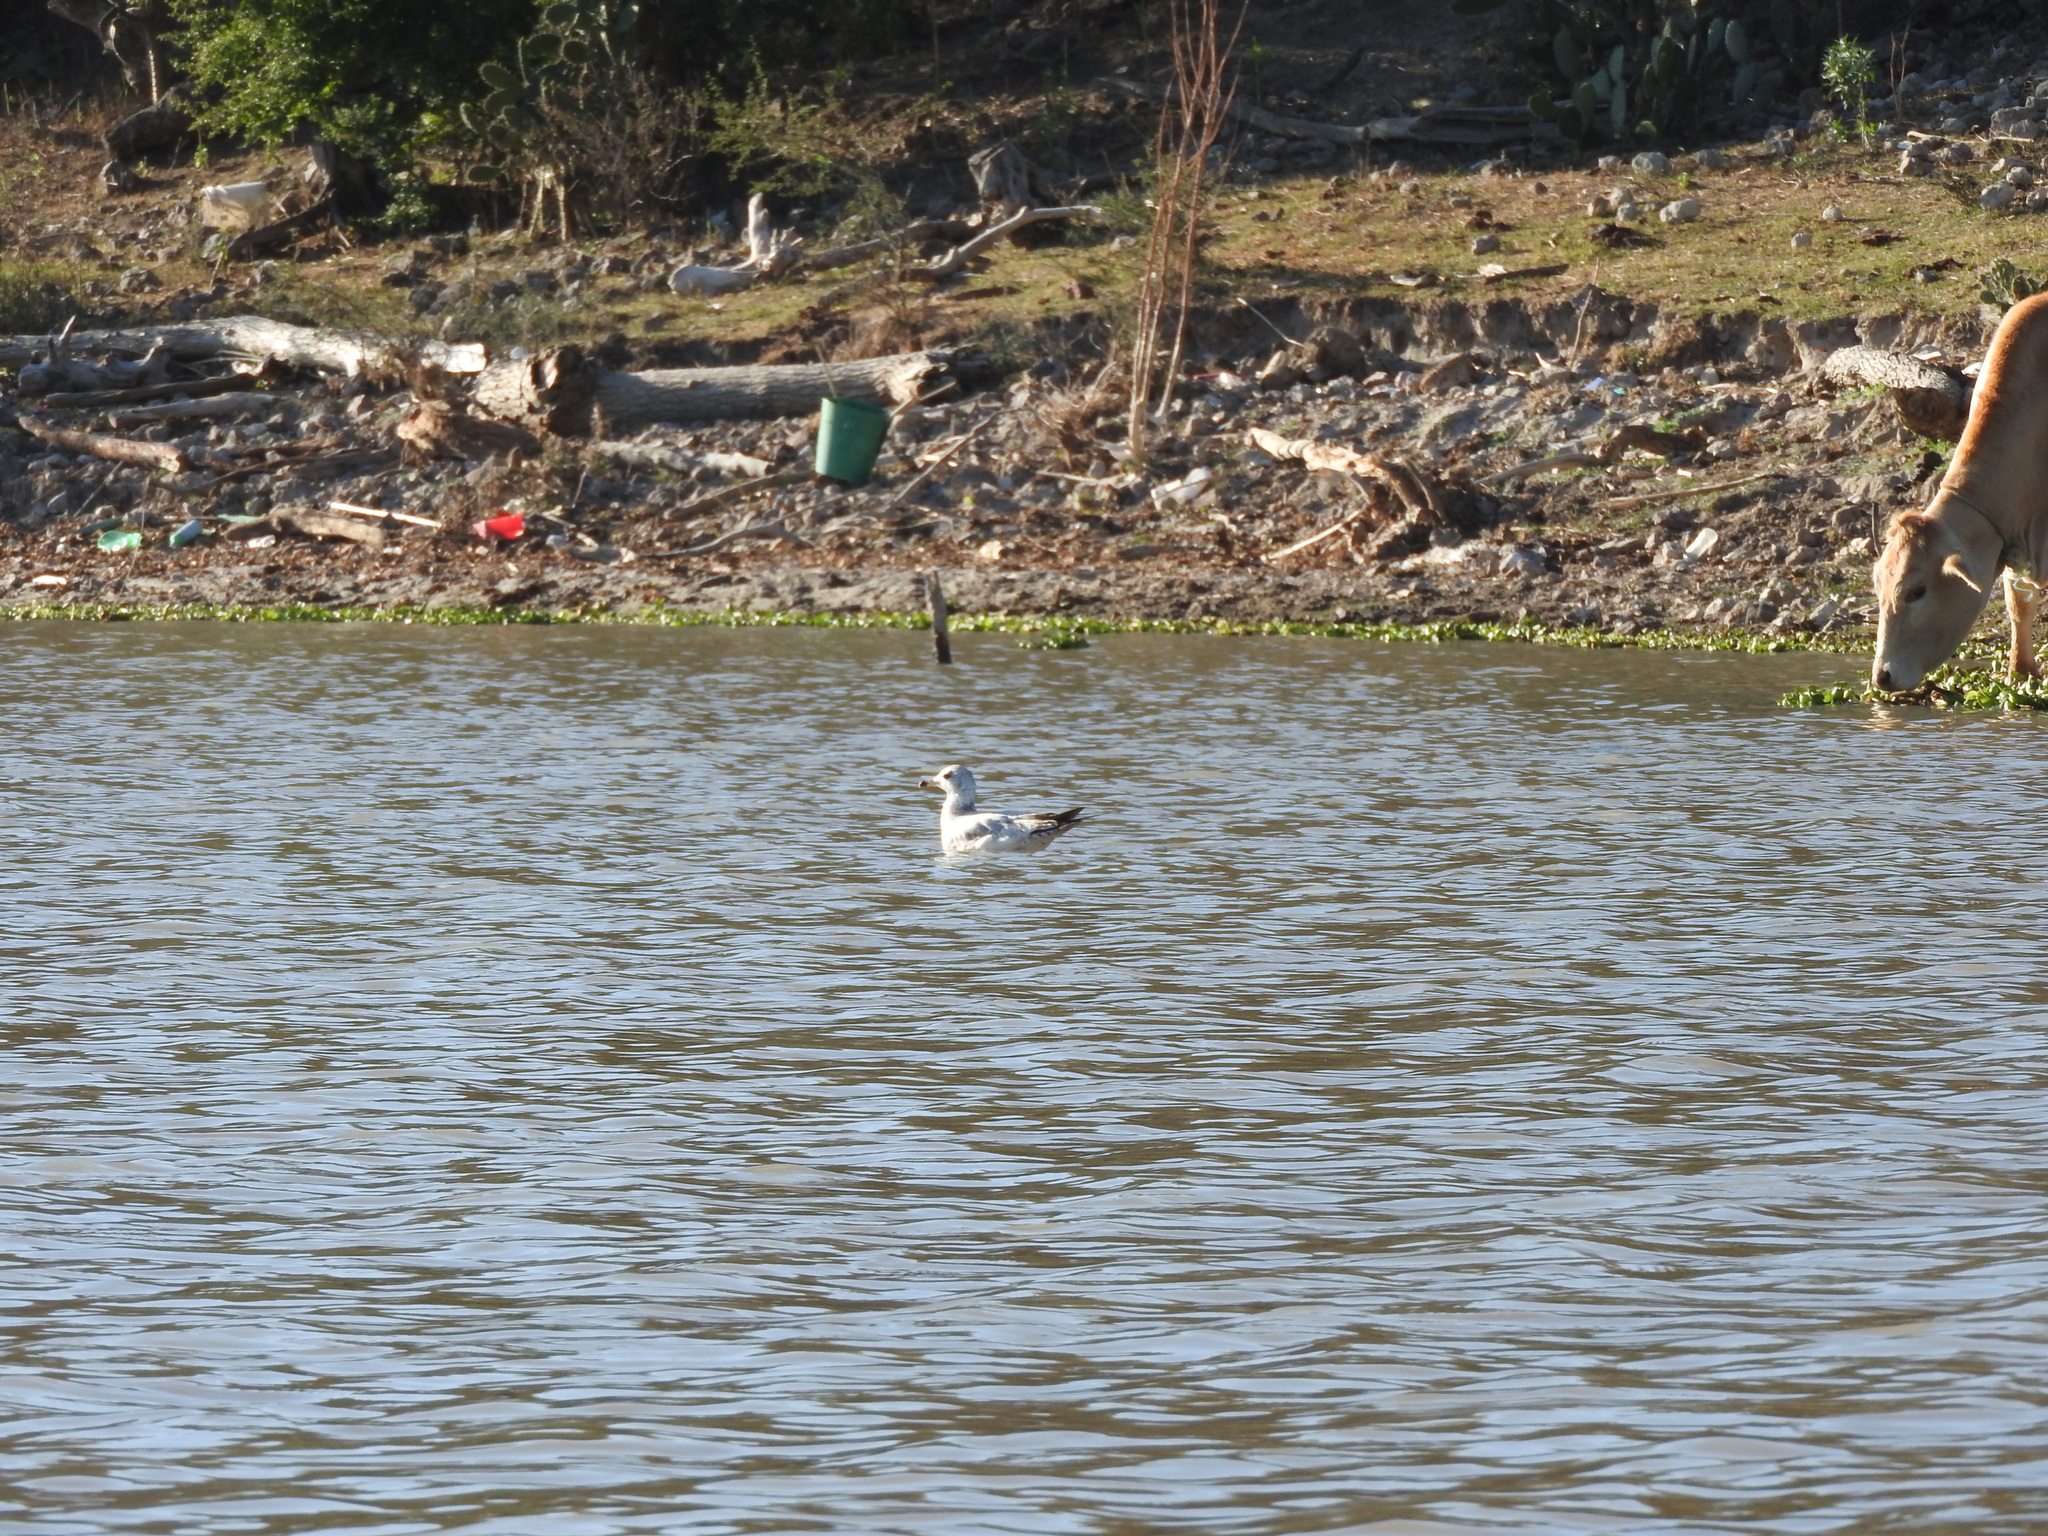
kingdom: Animalia
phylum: Chordata
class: Aves
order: Charadriiformes
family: Laridae
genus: Larus
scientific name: Larus delawarensis
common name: Ring-billed gull
